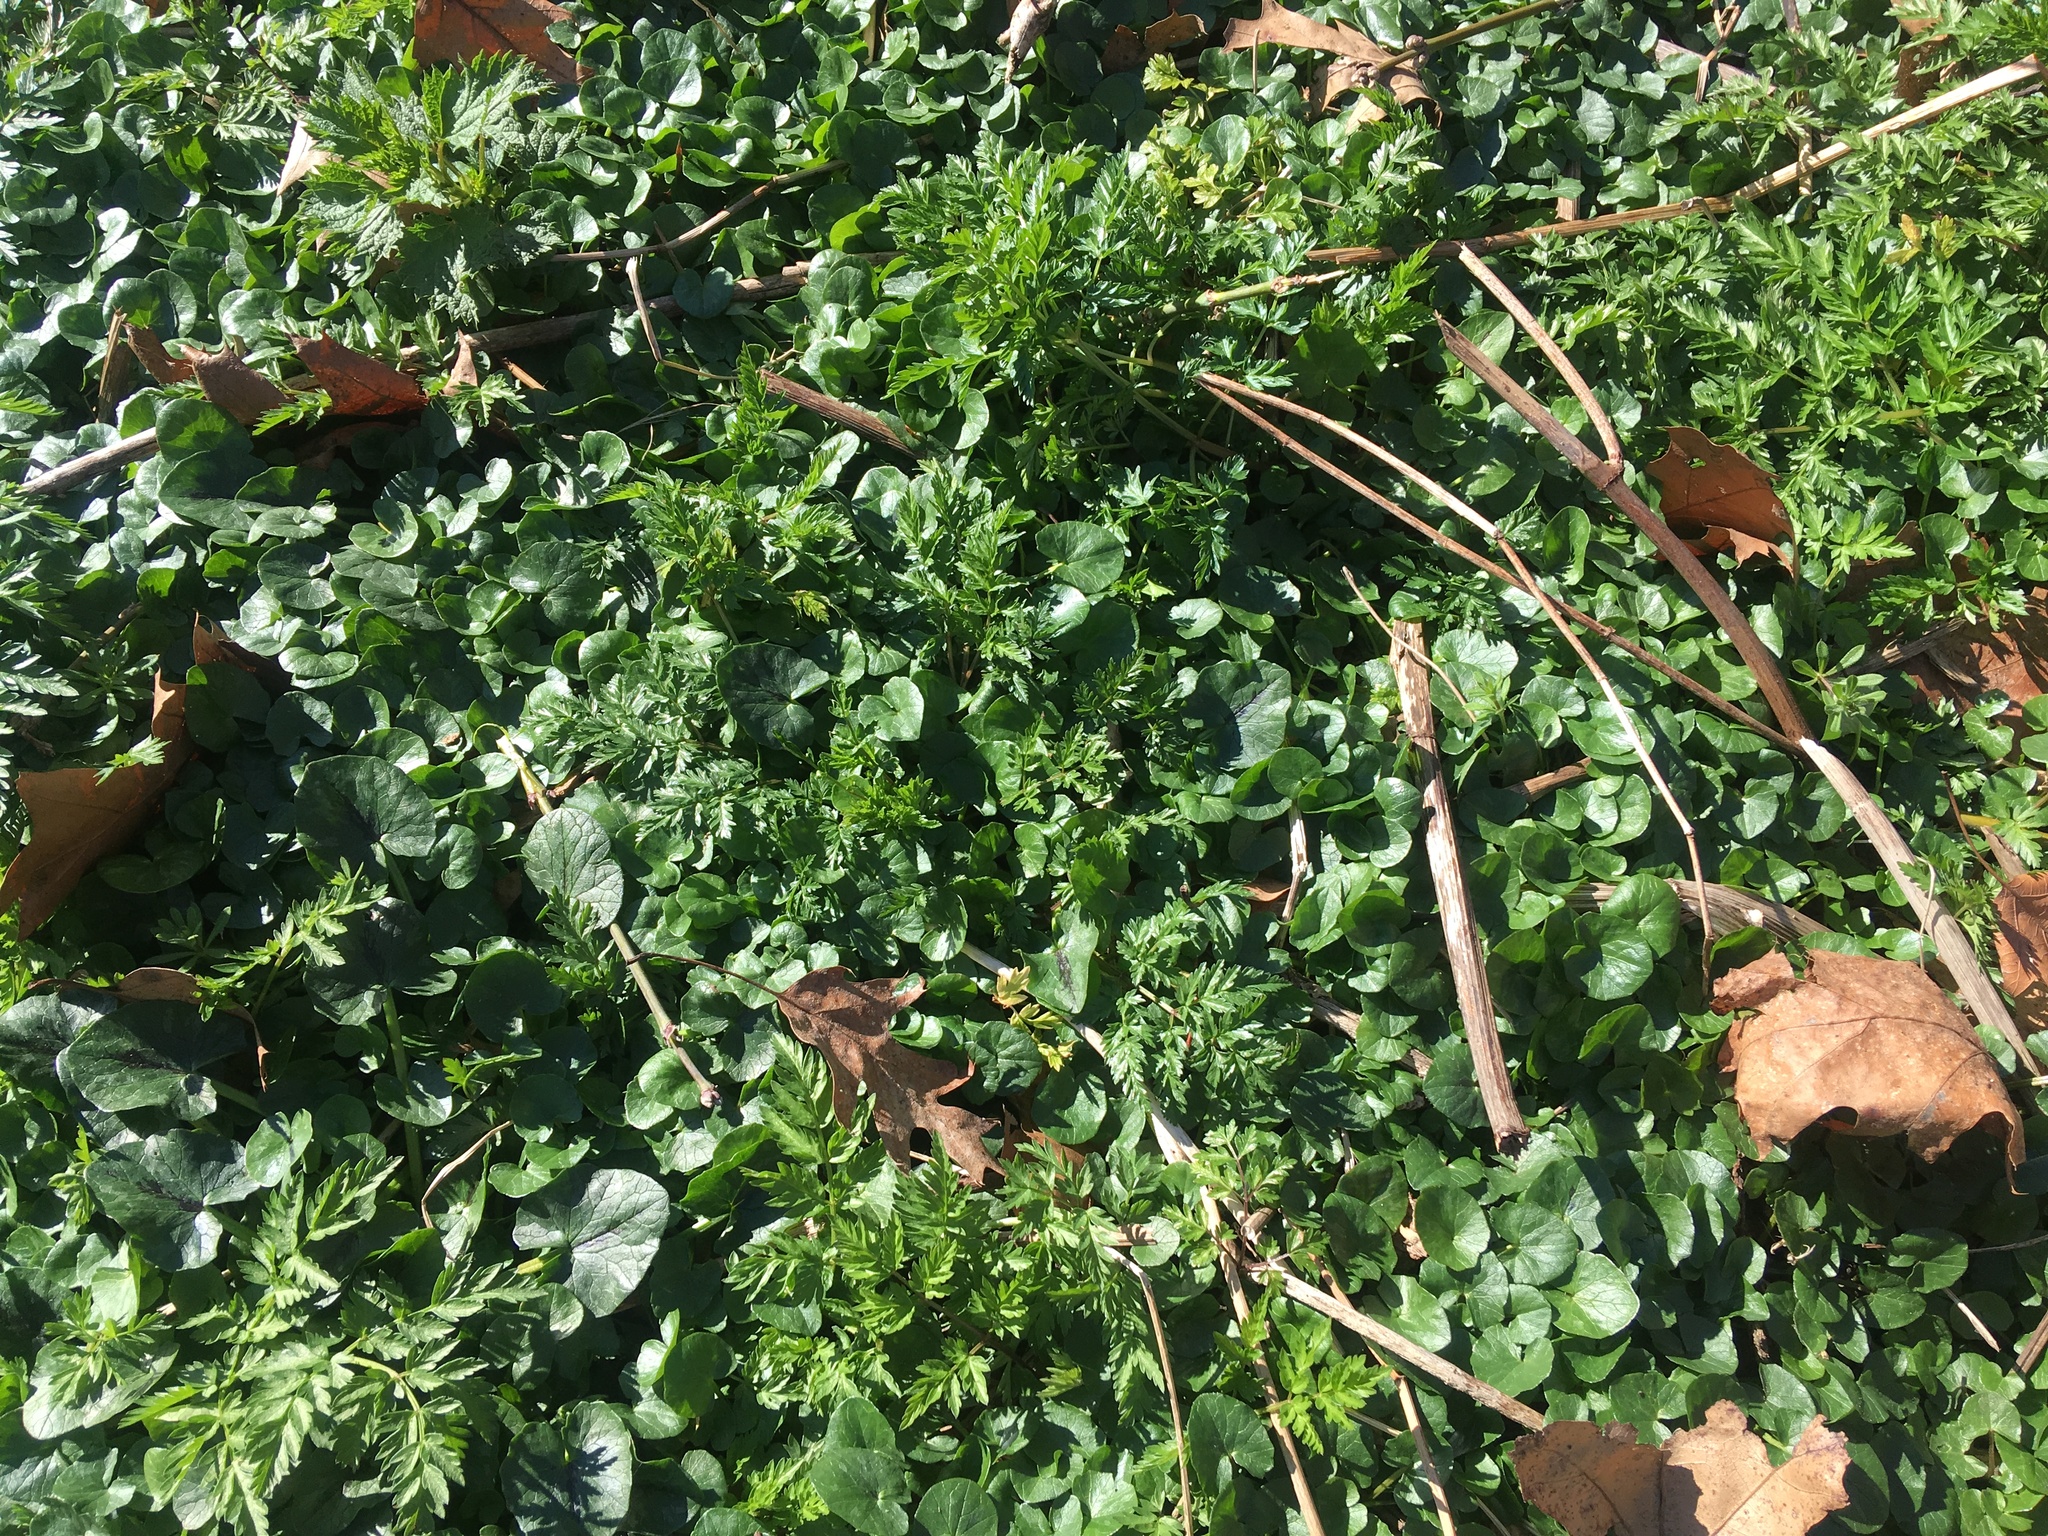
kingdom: Plantae
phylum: Tracheophyta
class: Magnoliopsida
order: Ranunculales
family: Ranunculaceae
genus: Ficaria
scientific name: Ficaria verna
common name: Lesser celandine
